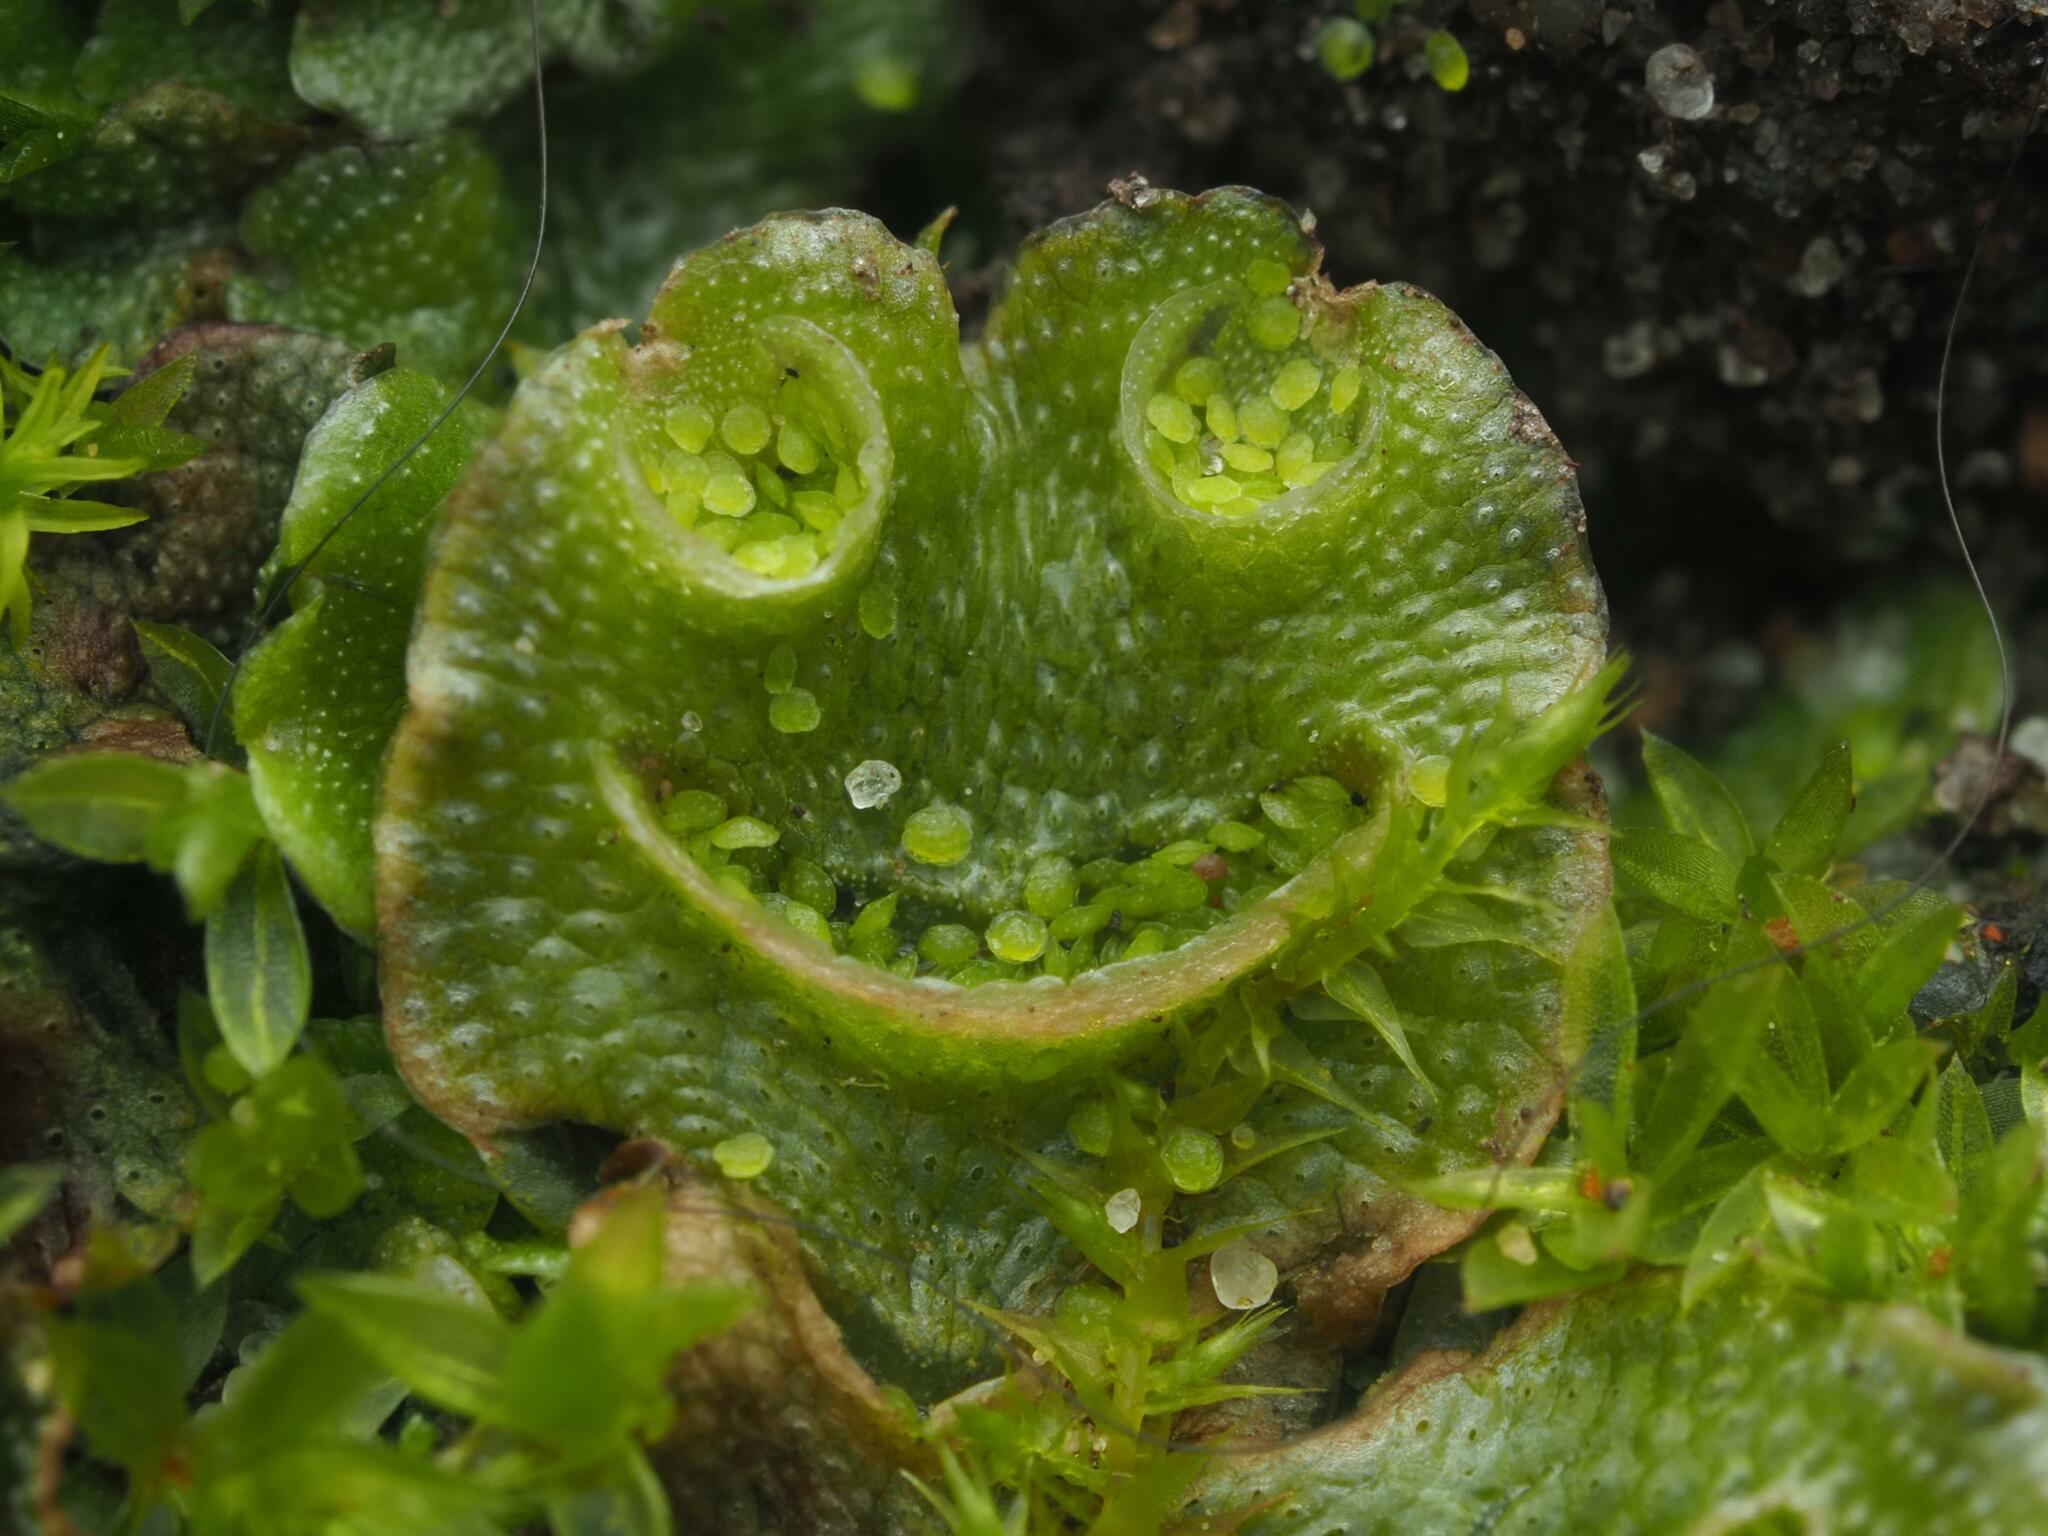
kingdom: Plantae
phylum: Marchantiophyta
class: Marchantiopsida
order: Lunulariales
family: Lunulariaceae
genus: Lunularia
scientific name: Lunularia cruciata
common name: Crescent-cup liverwort
